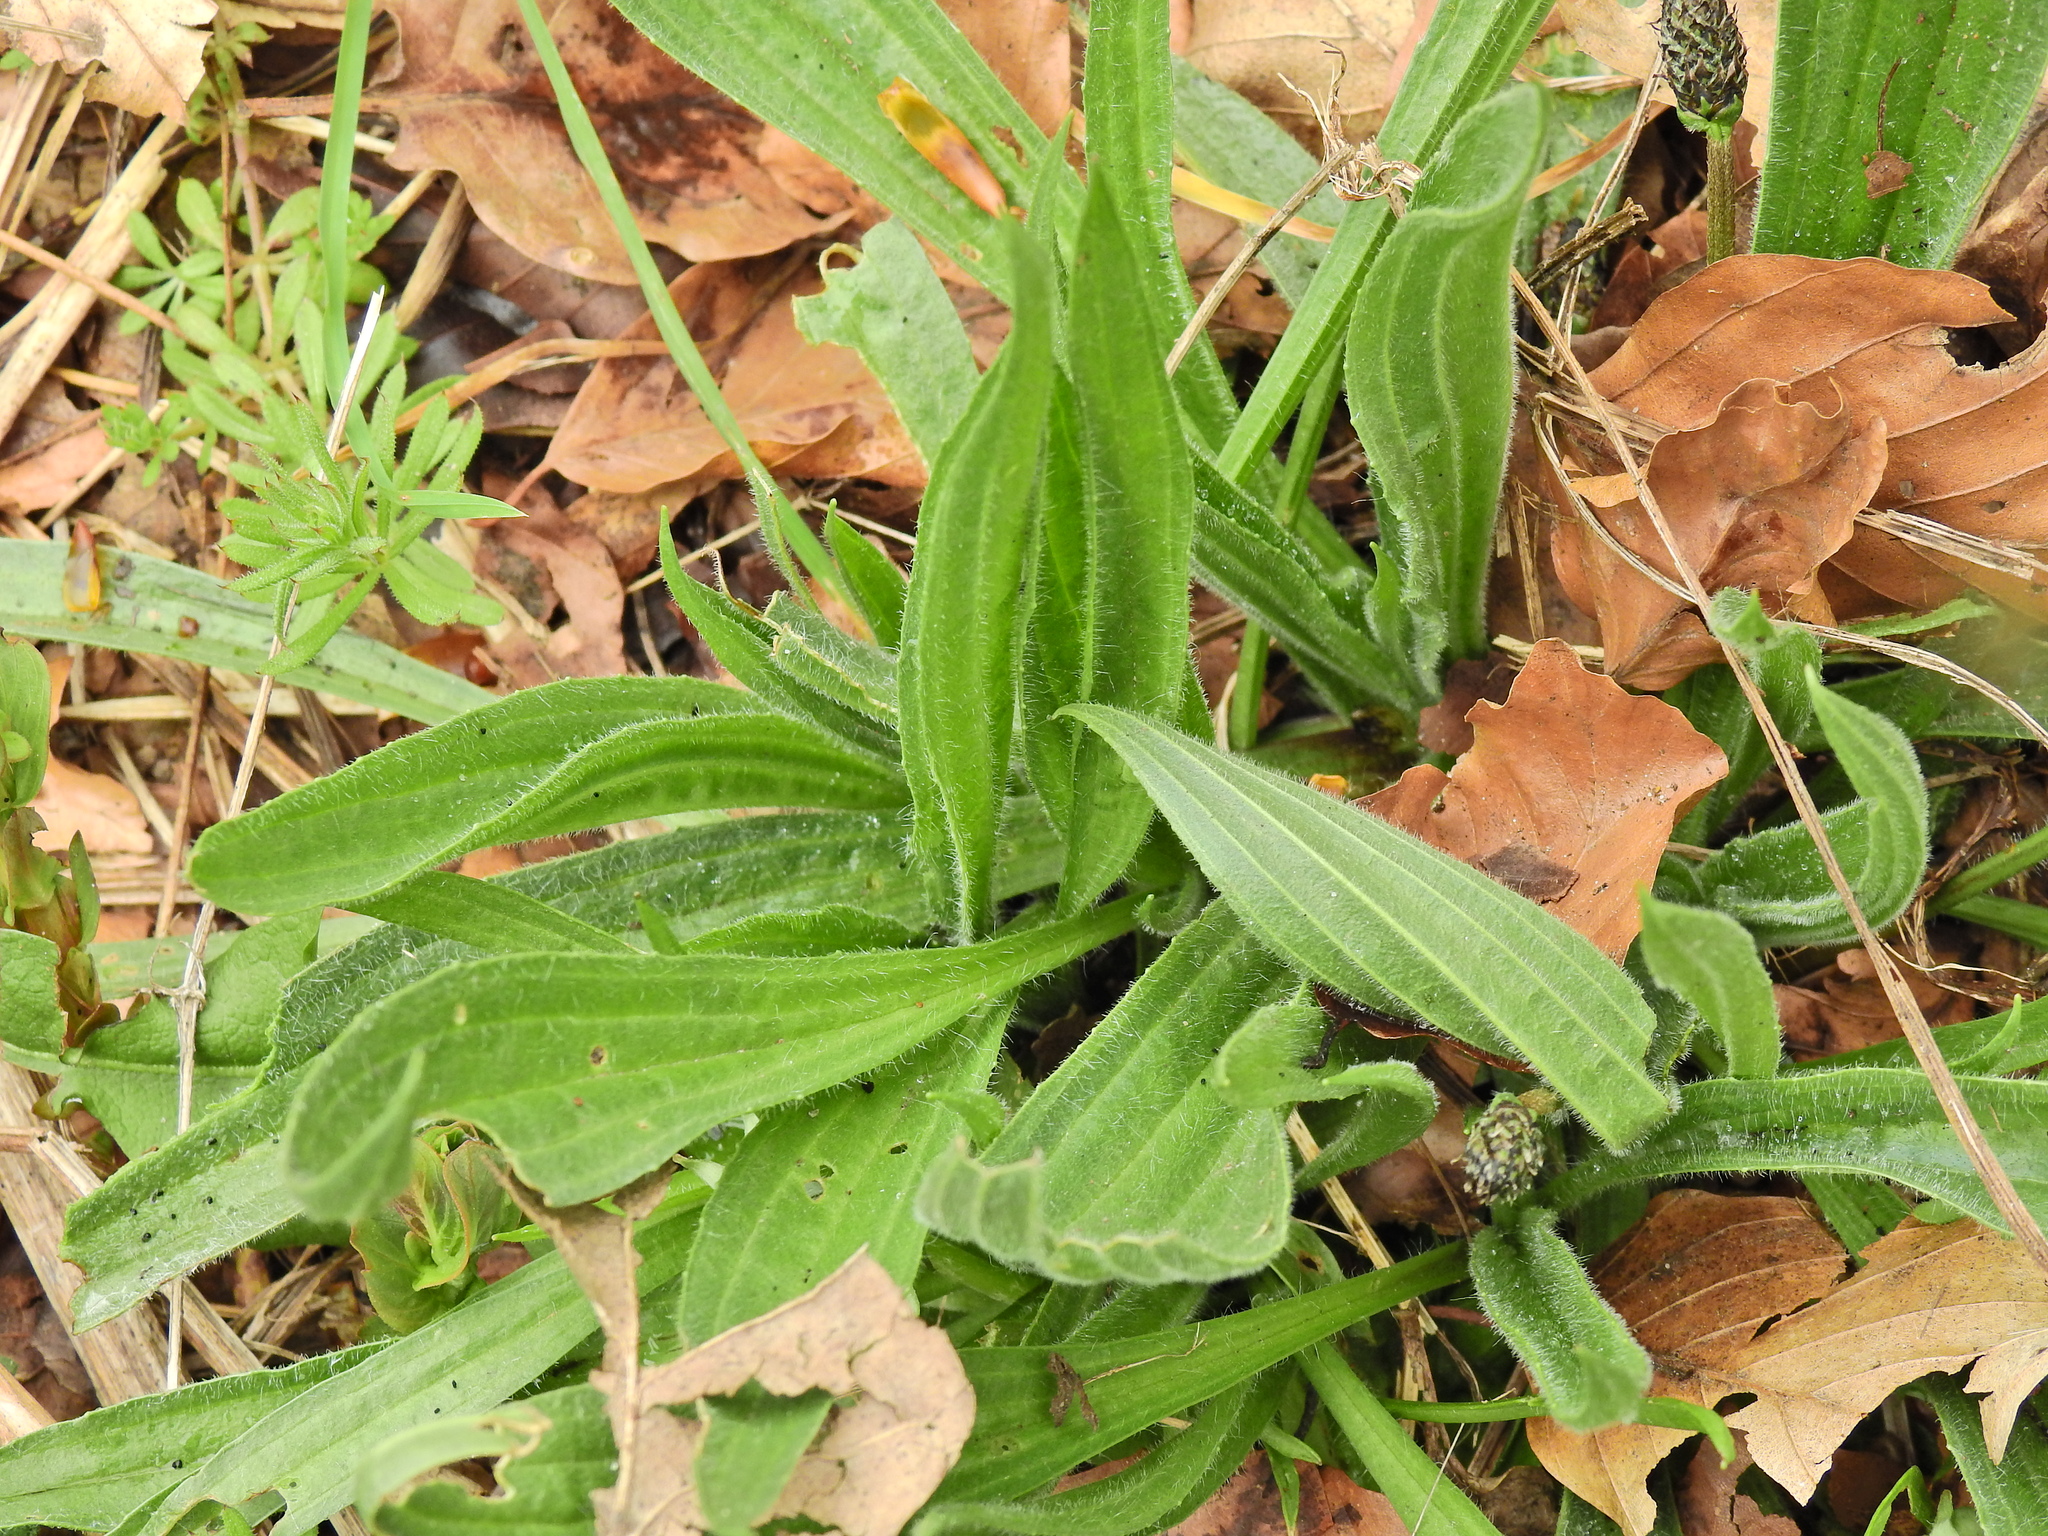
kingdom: Plantae
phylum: Tracheophyta
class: Magnoliopsida
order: Lamiales
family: Plantaginaceae
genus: Plantago
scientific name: Plantago lanceolata
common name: Ribwort plantain
